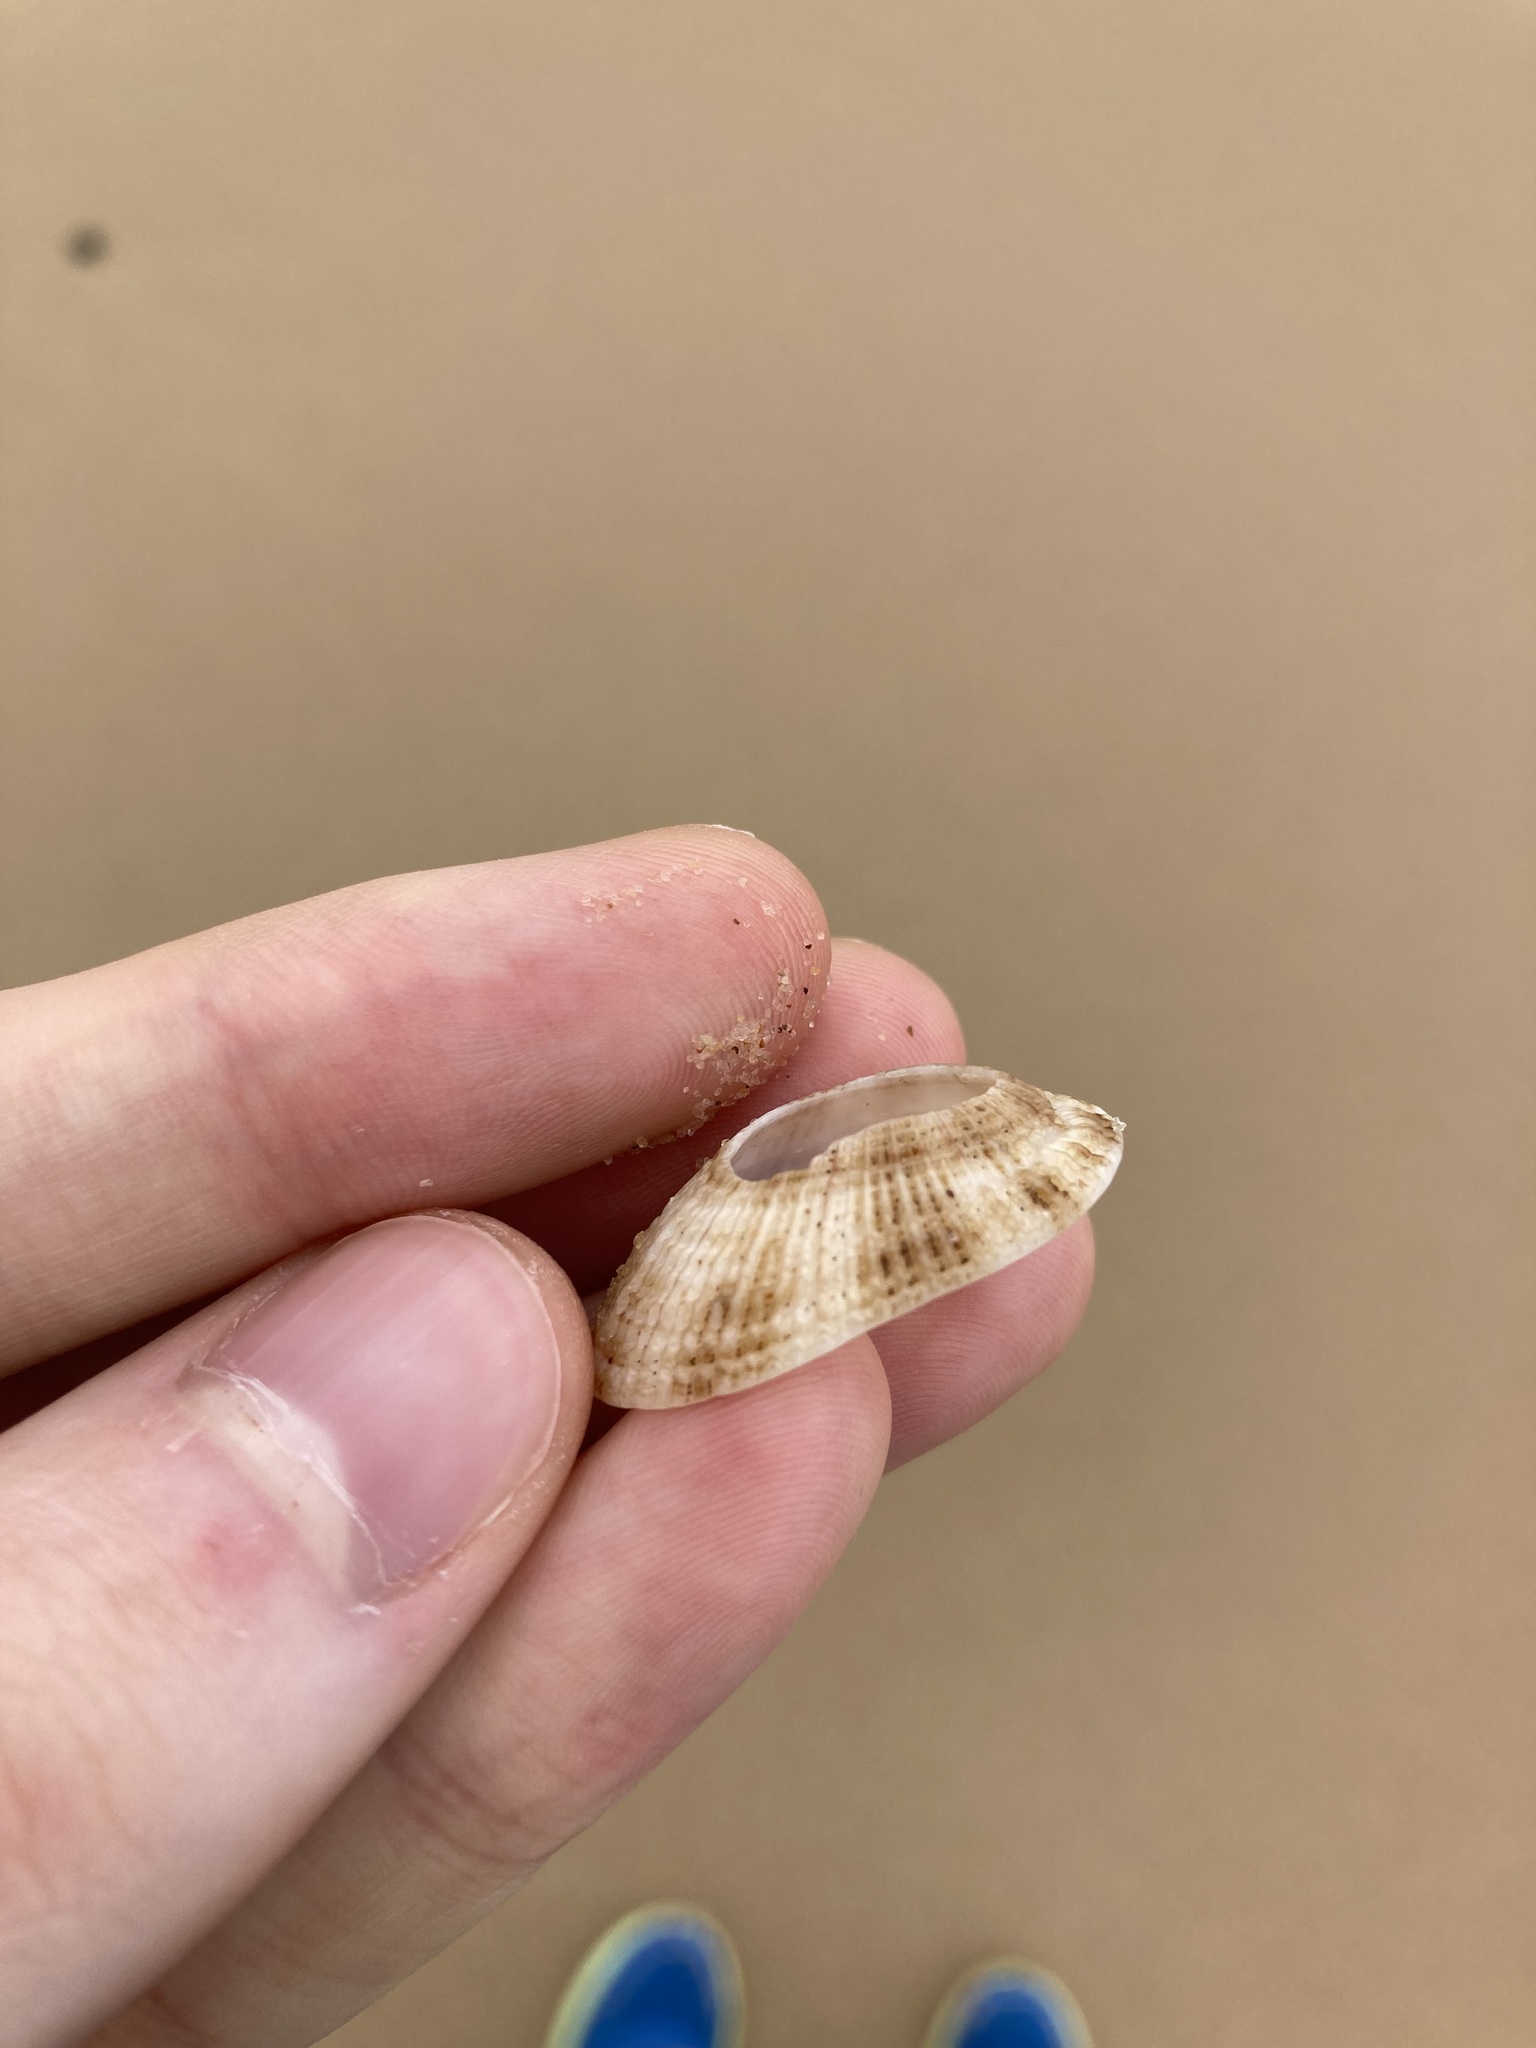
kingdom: Animalia
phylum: Mollusca
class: Gastropoda
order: Lepetellida
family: Fissurellidae
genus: Diodora
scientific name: Diodora lineata
